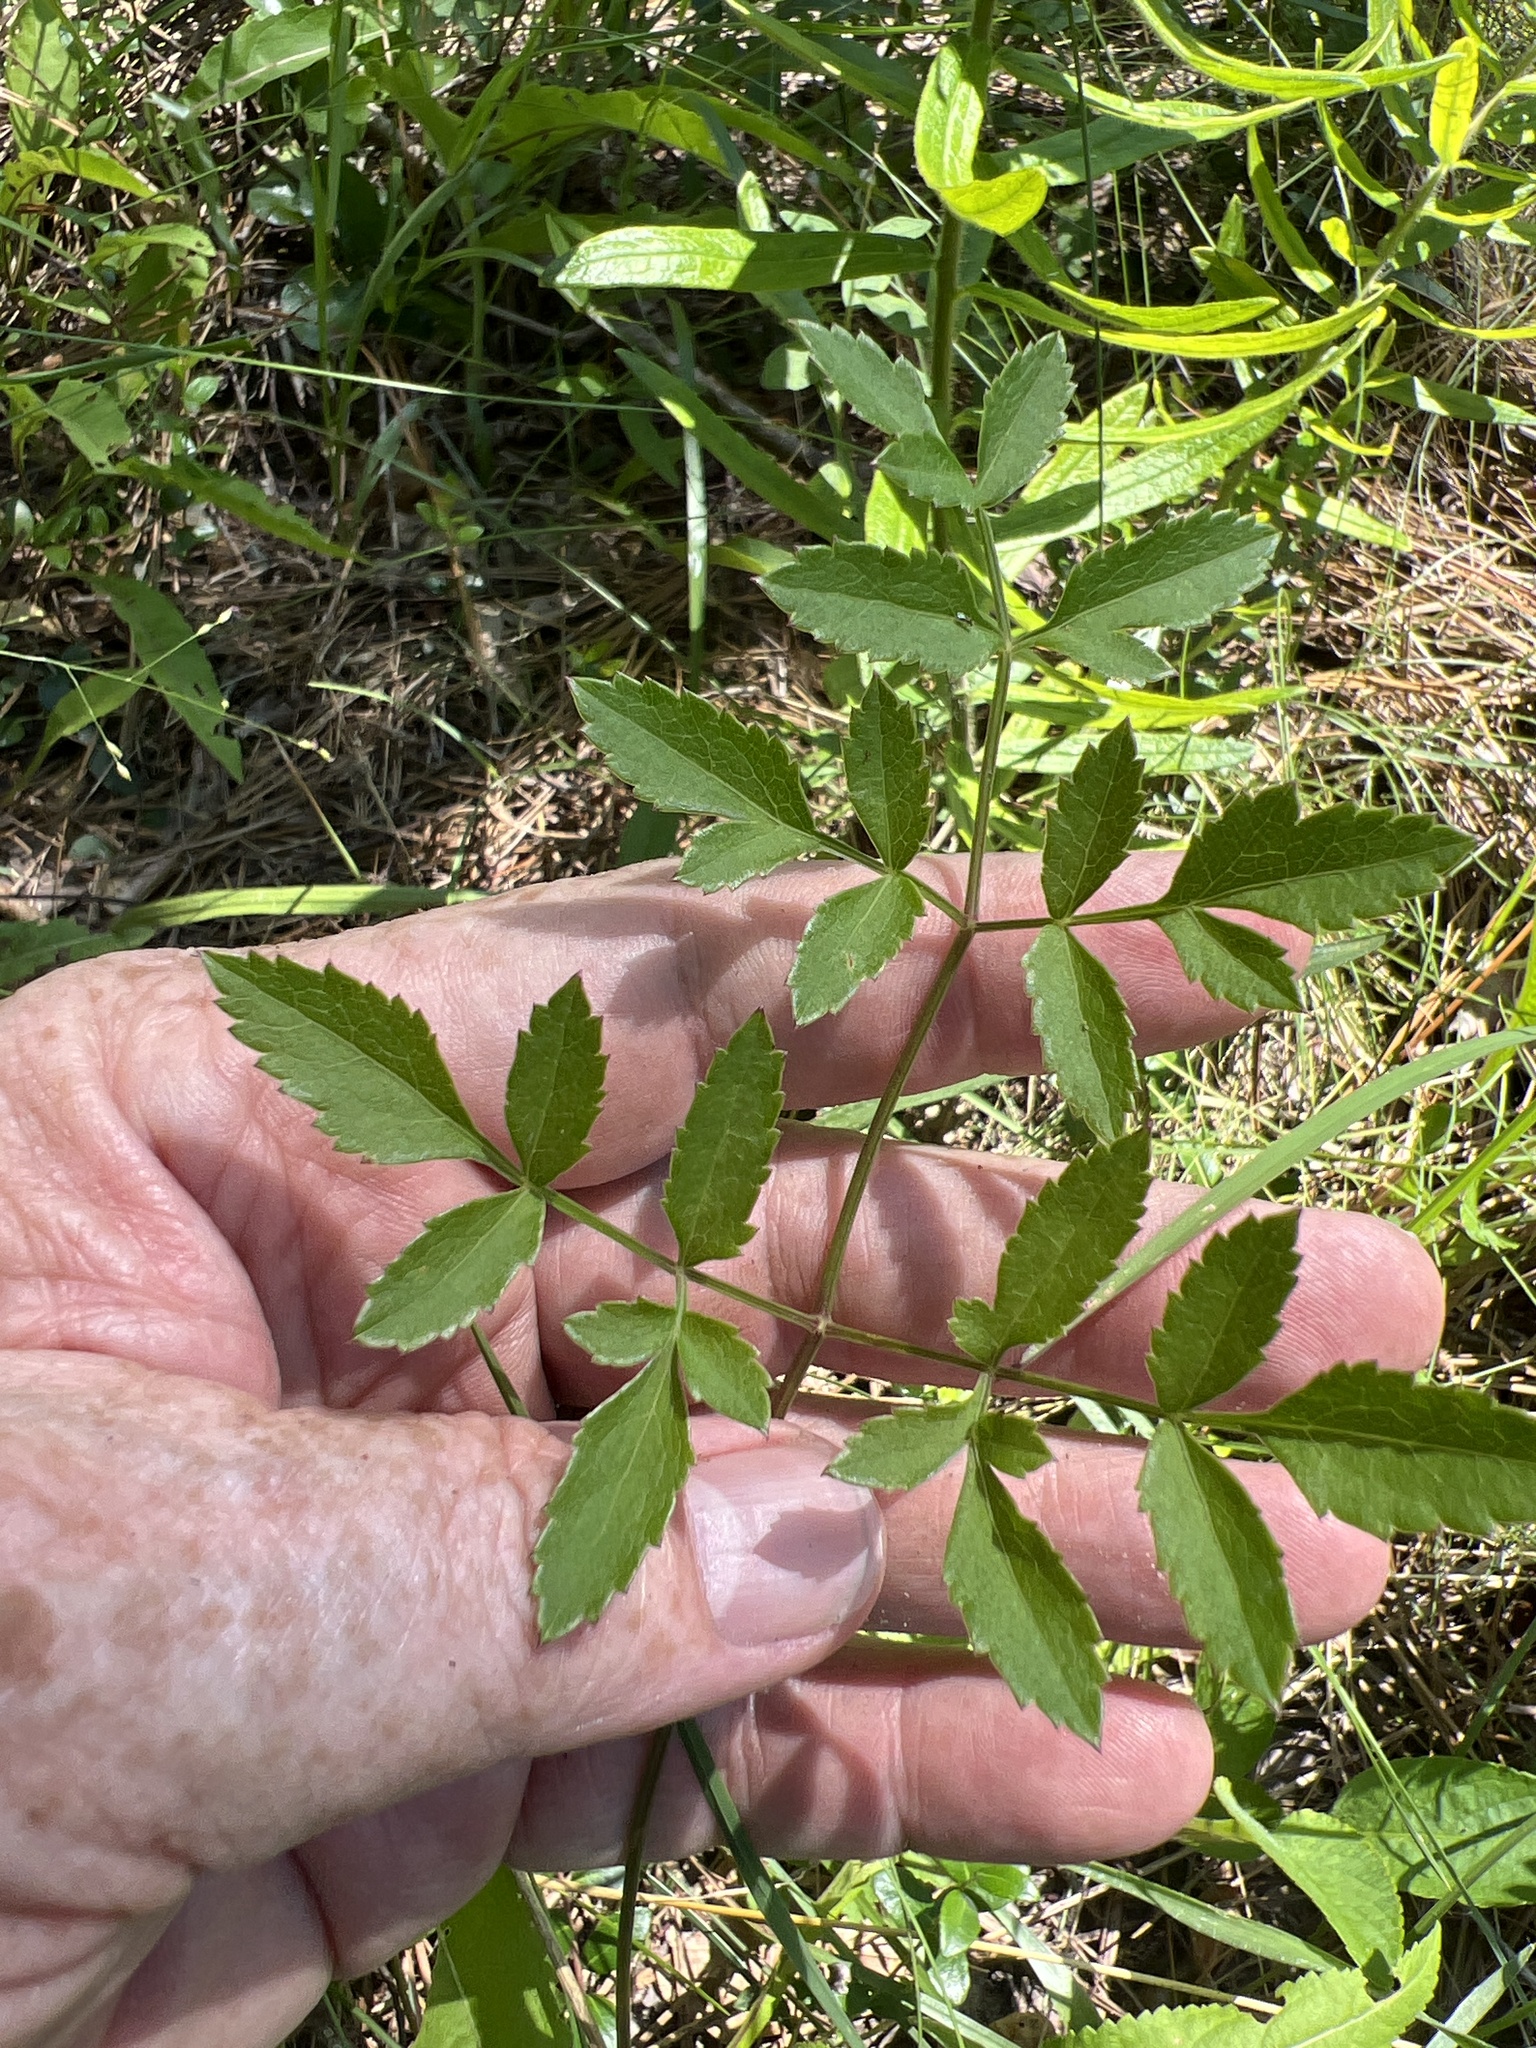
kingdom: Plantae
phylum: Tracheophyta
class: Magnoliopsida
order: Apiales
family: Apiaceae
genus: Angelica
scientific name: Angelica venenosa
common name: Hairy angelica
